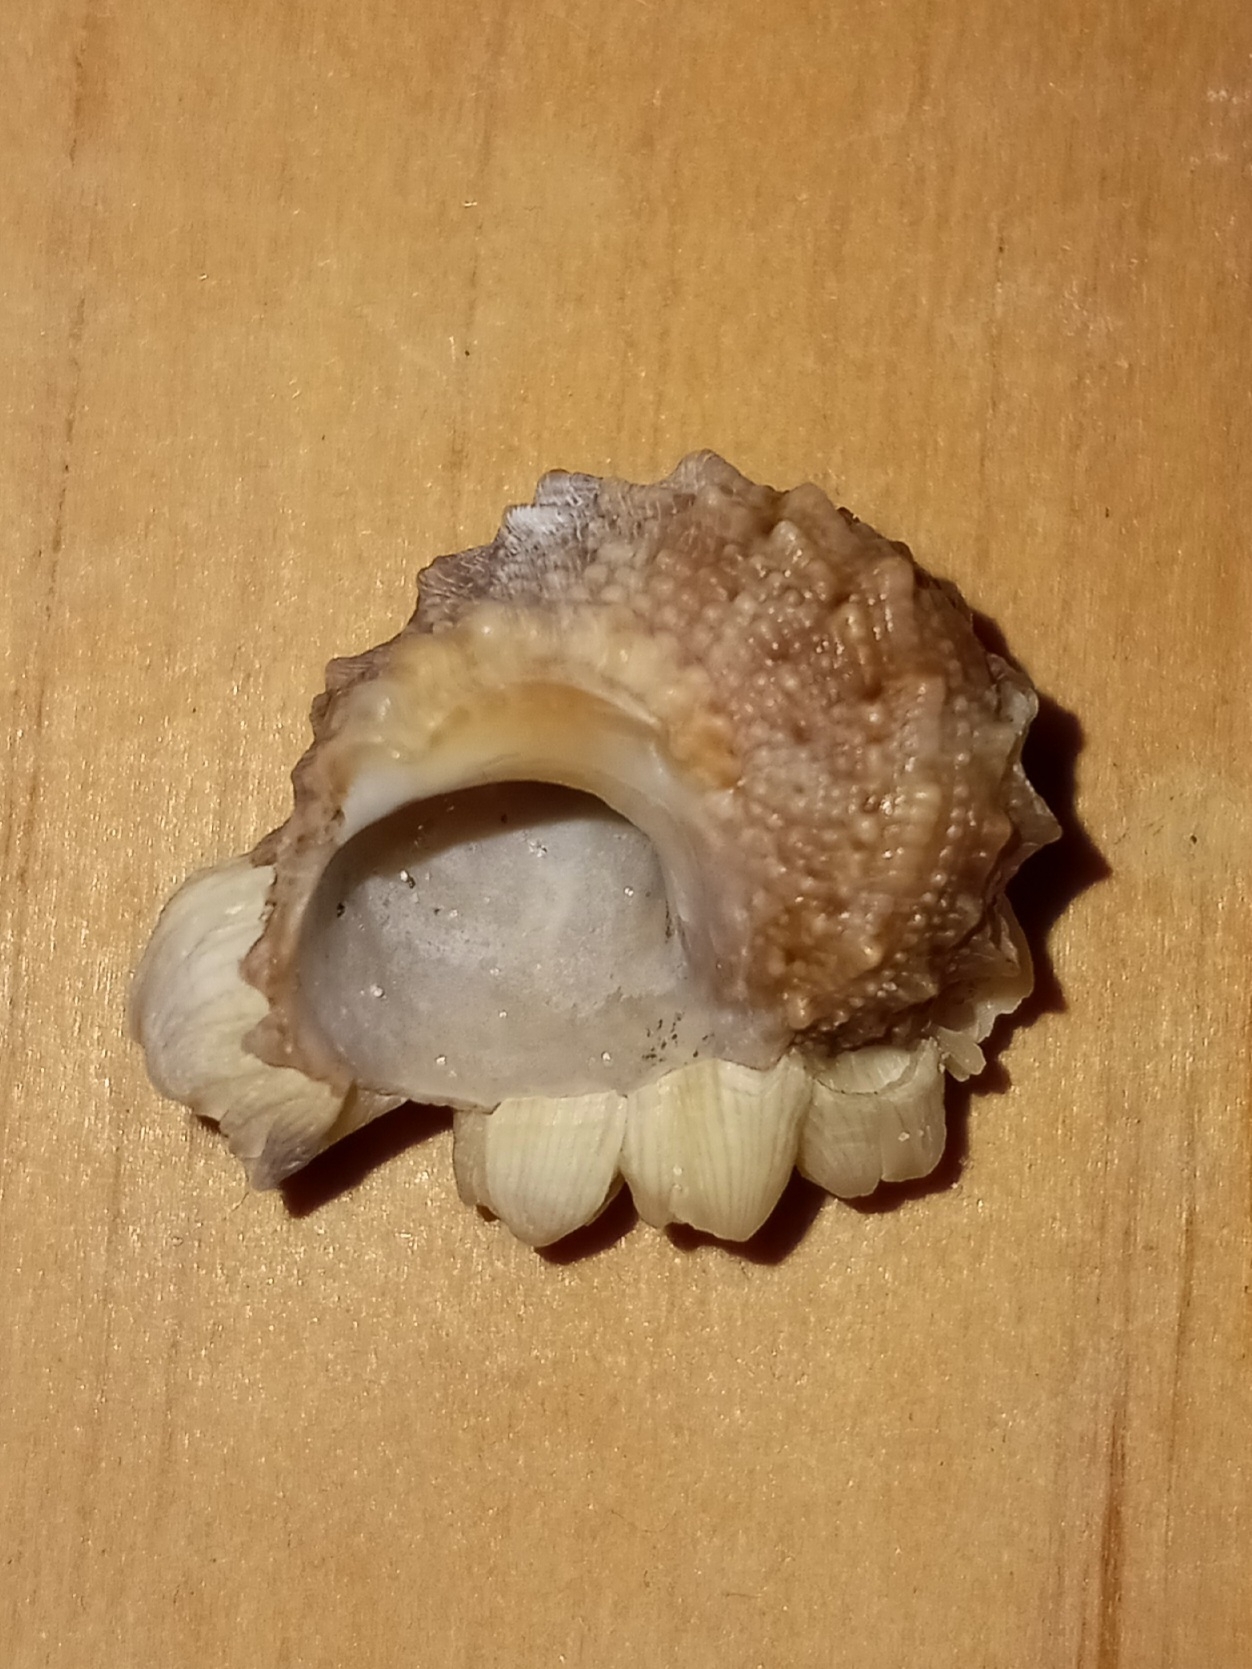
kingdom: Animalia
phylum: Mollusca
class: Gastropoda
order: Trochida
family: Turbinidae
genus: Turbo
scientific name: Turbo castanea
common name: Chestnut turban
